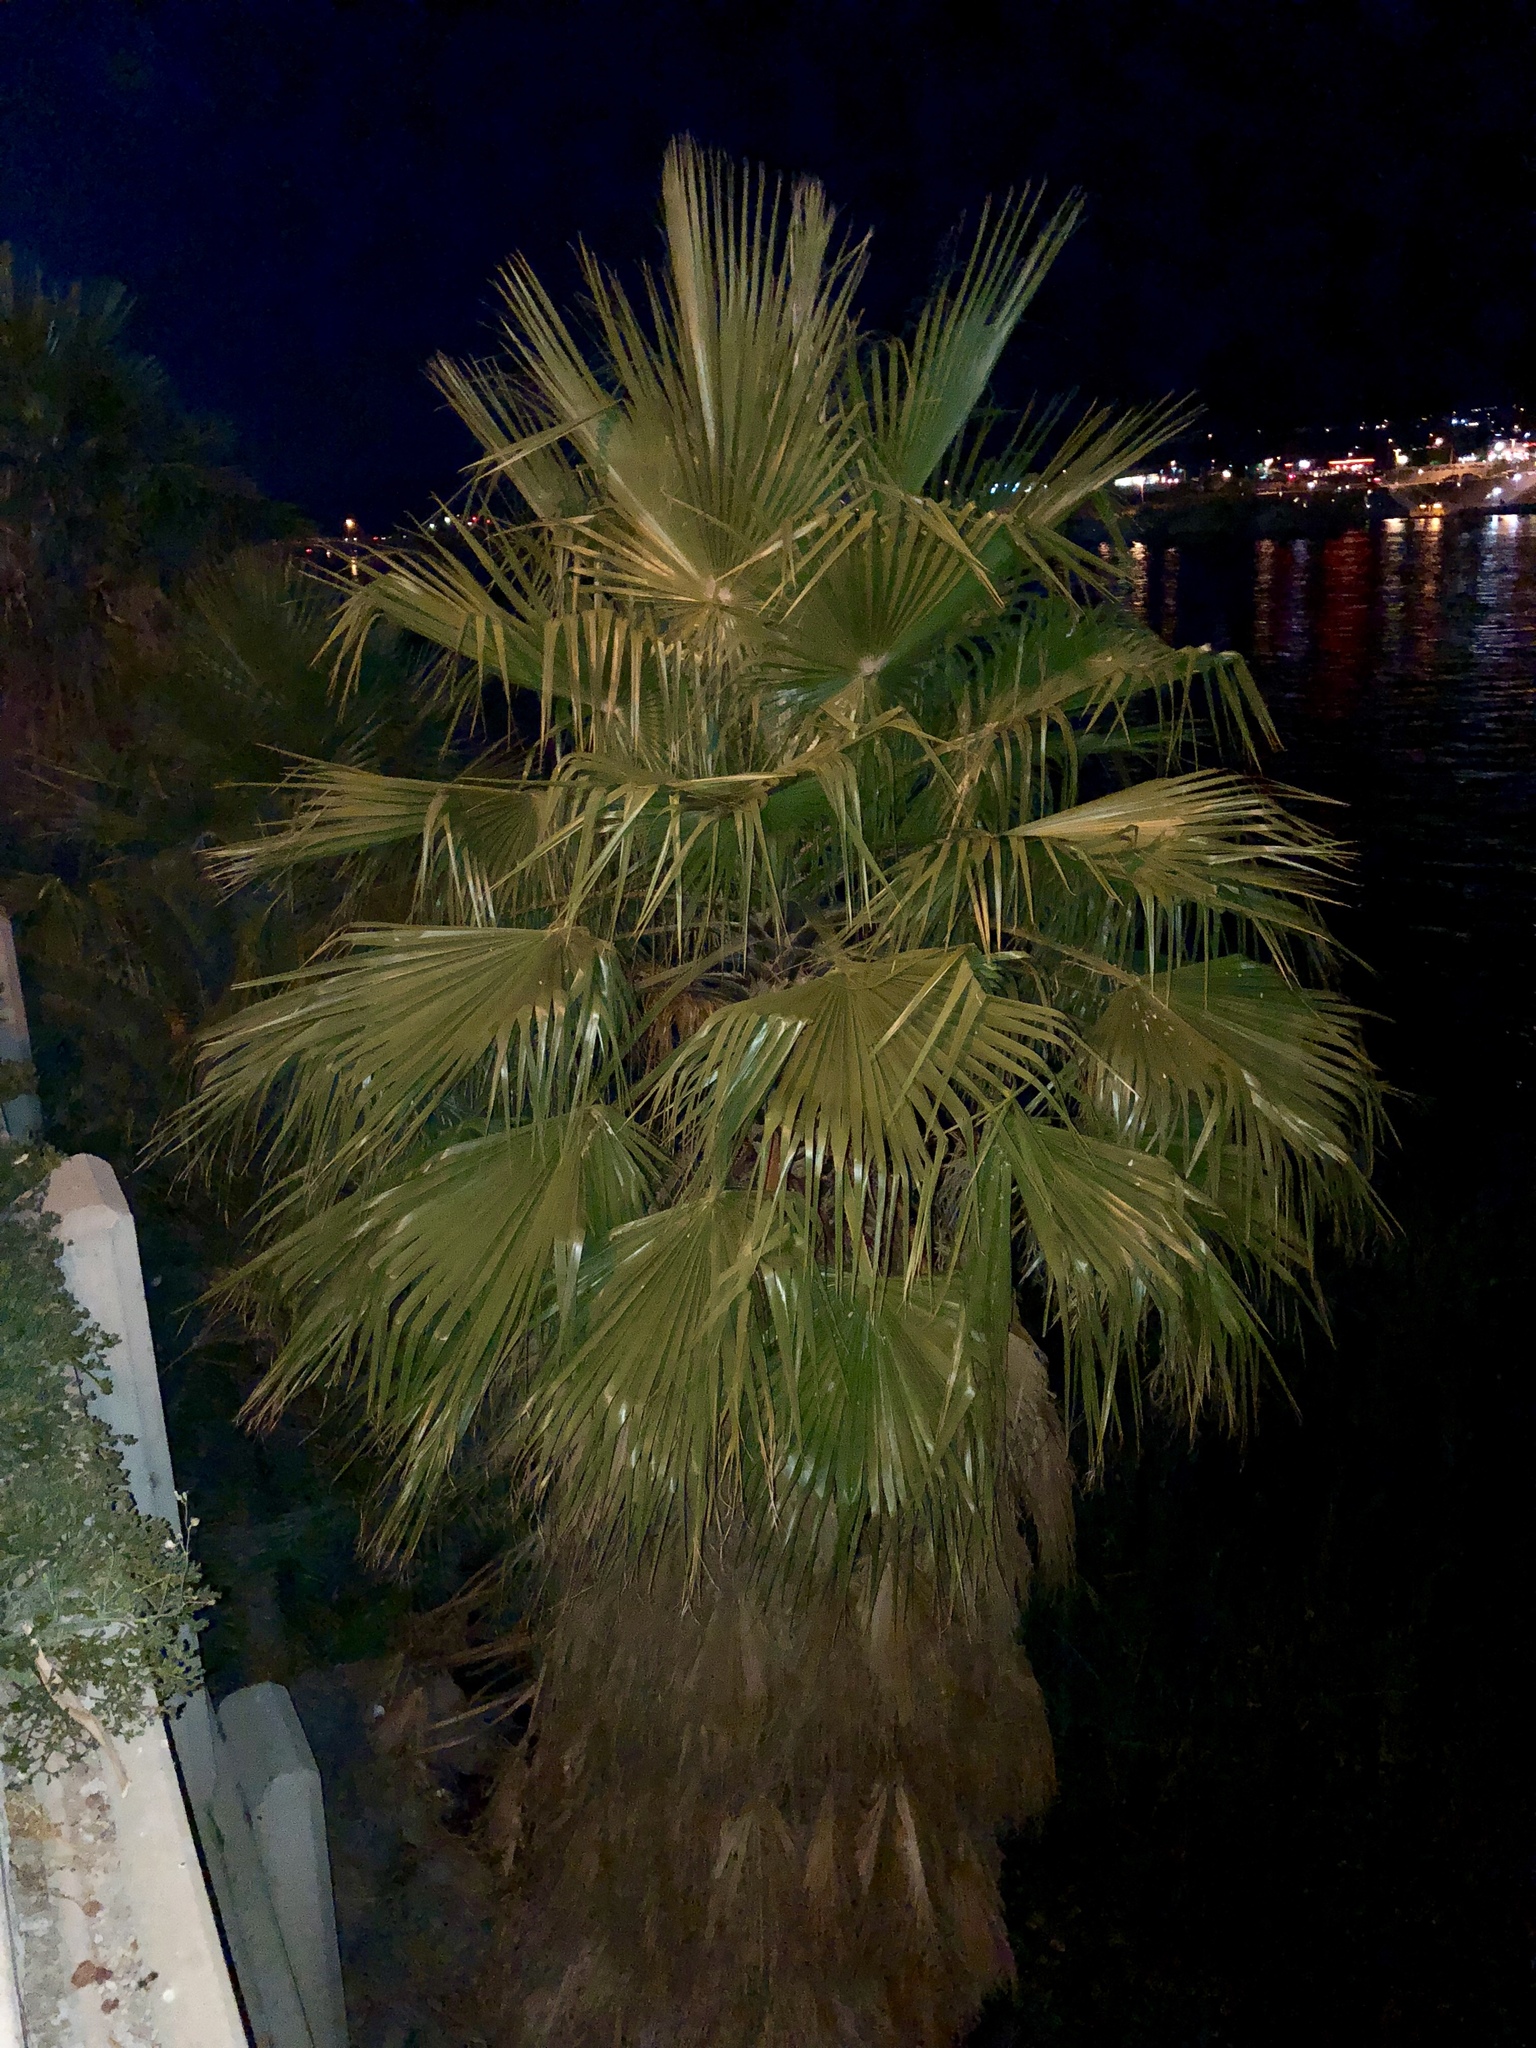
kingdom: Plantae
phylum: Tracheophyta
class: Liliopsida
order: Arecales
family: Arecaceae
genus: Washingtonia
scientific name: Washingtonia filifera
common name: California fan palm
